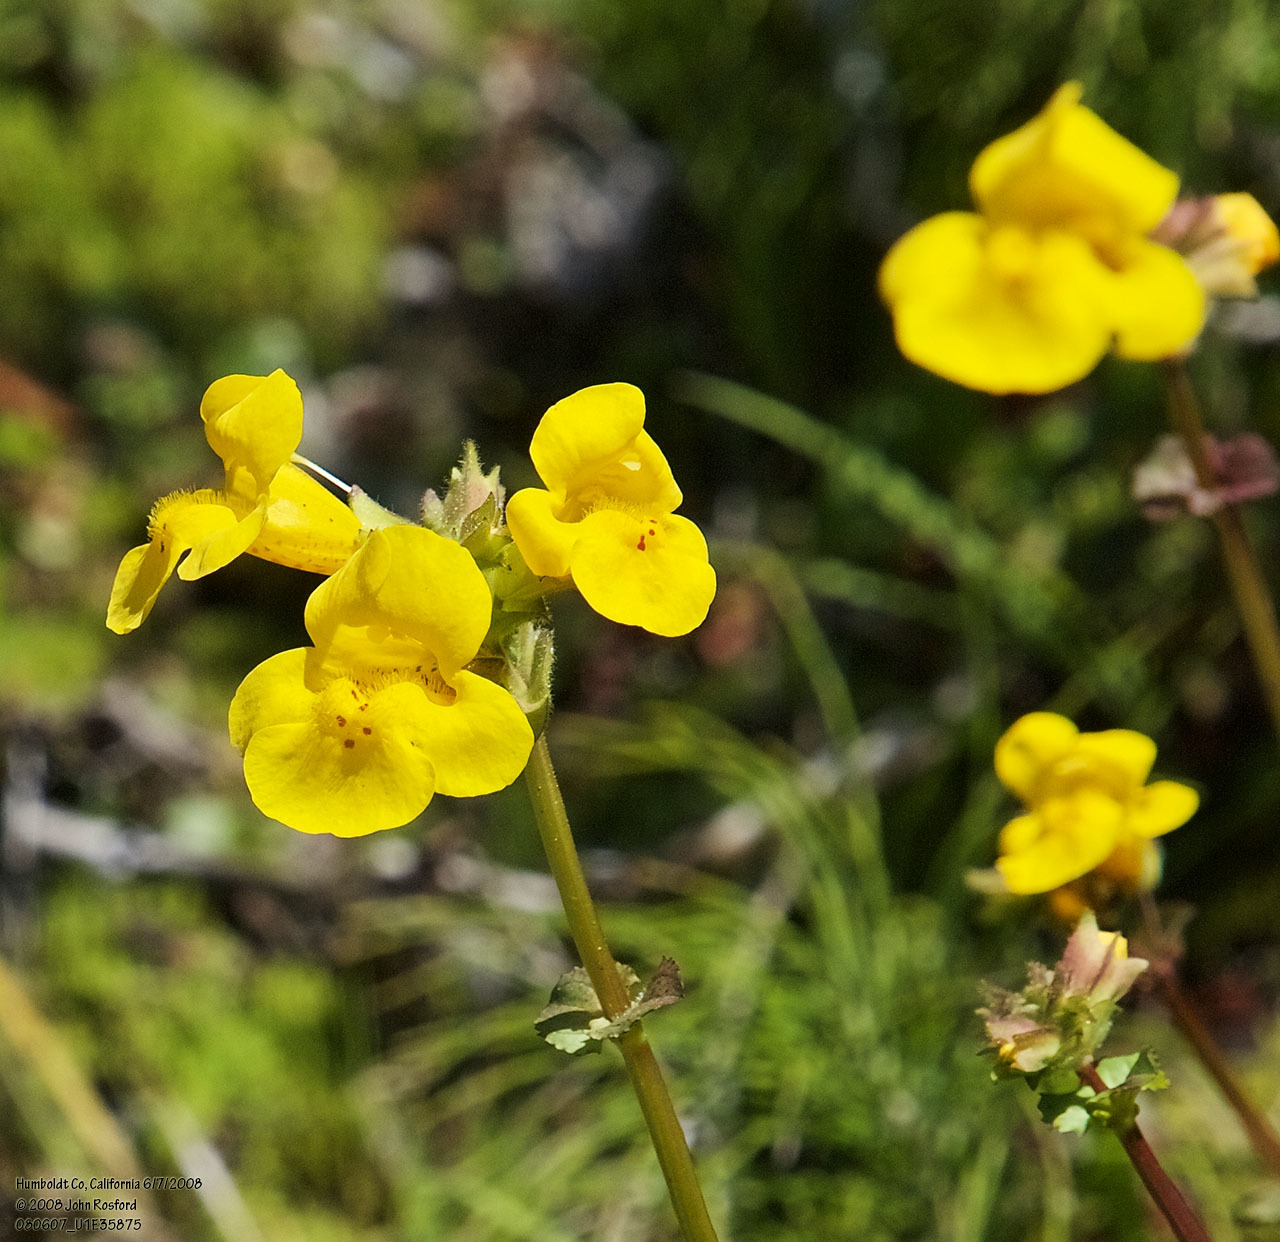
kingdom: Plantae
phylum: Tracheophyta
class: Magnoliopsida
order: Lamiales
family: Phrymaceae
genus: Erythranthe
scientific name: Erythranthe grandis
